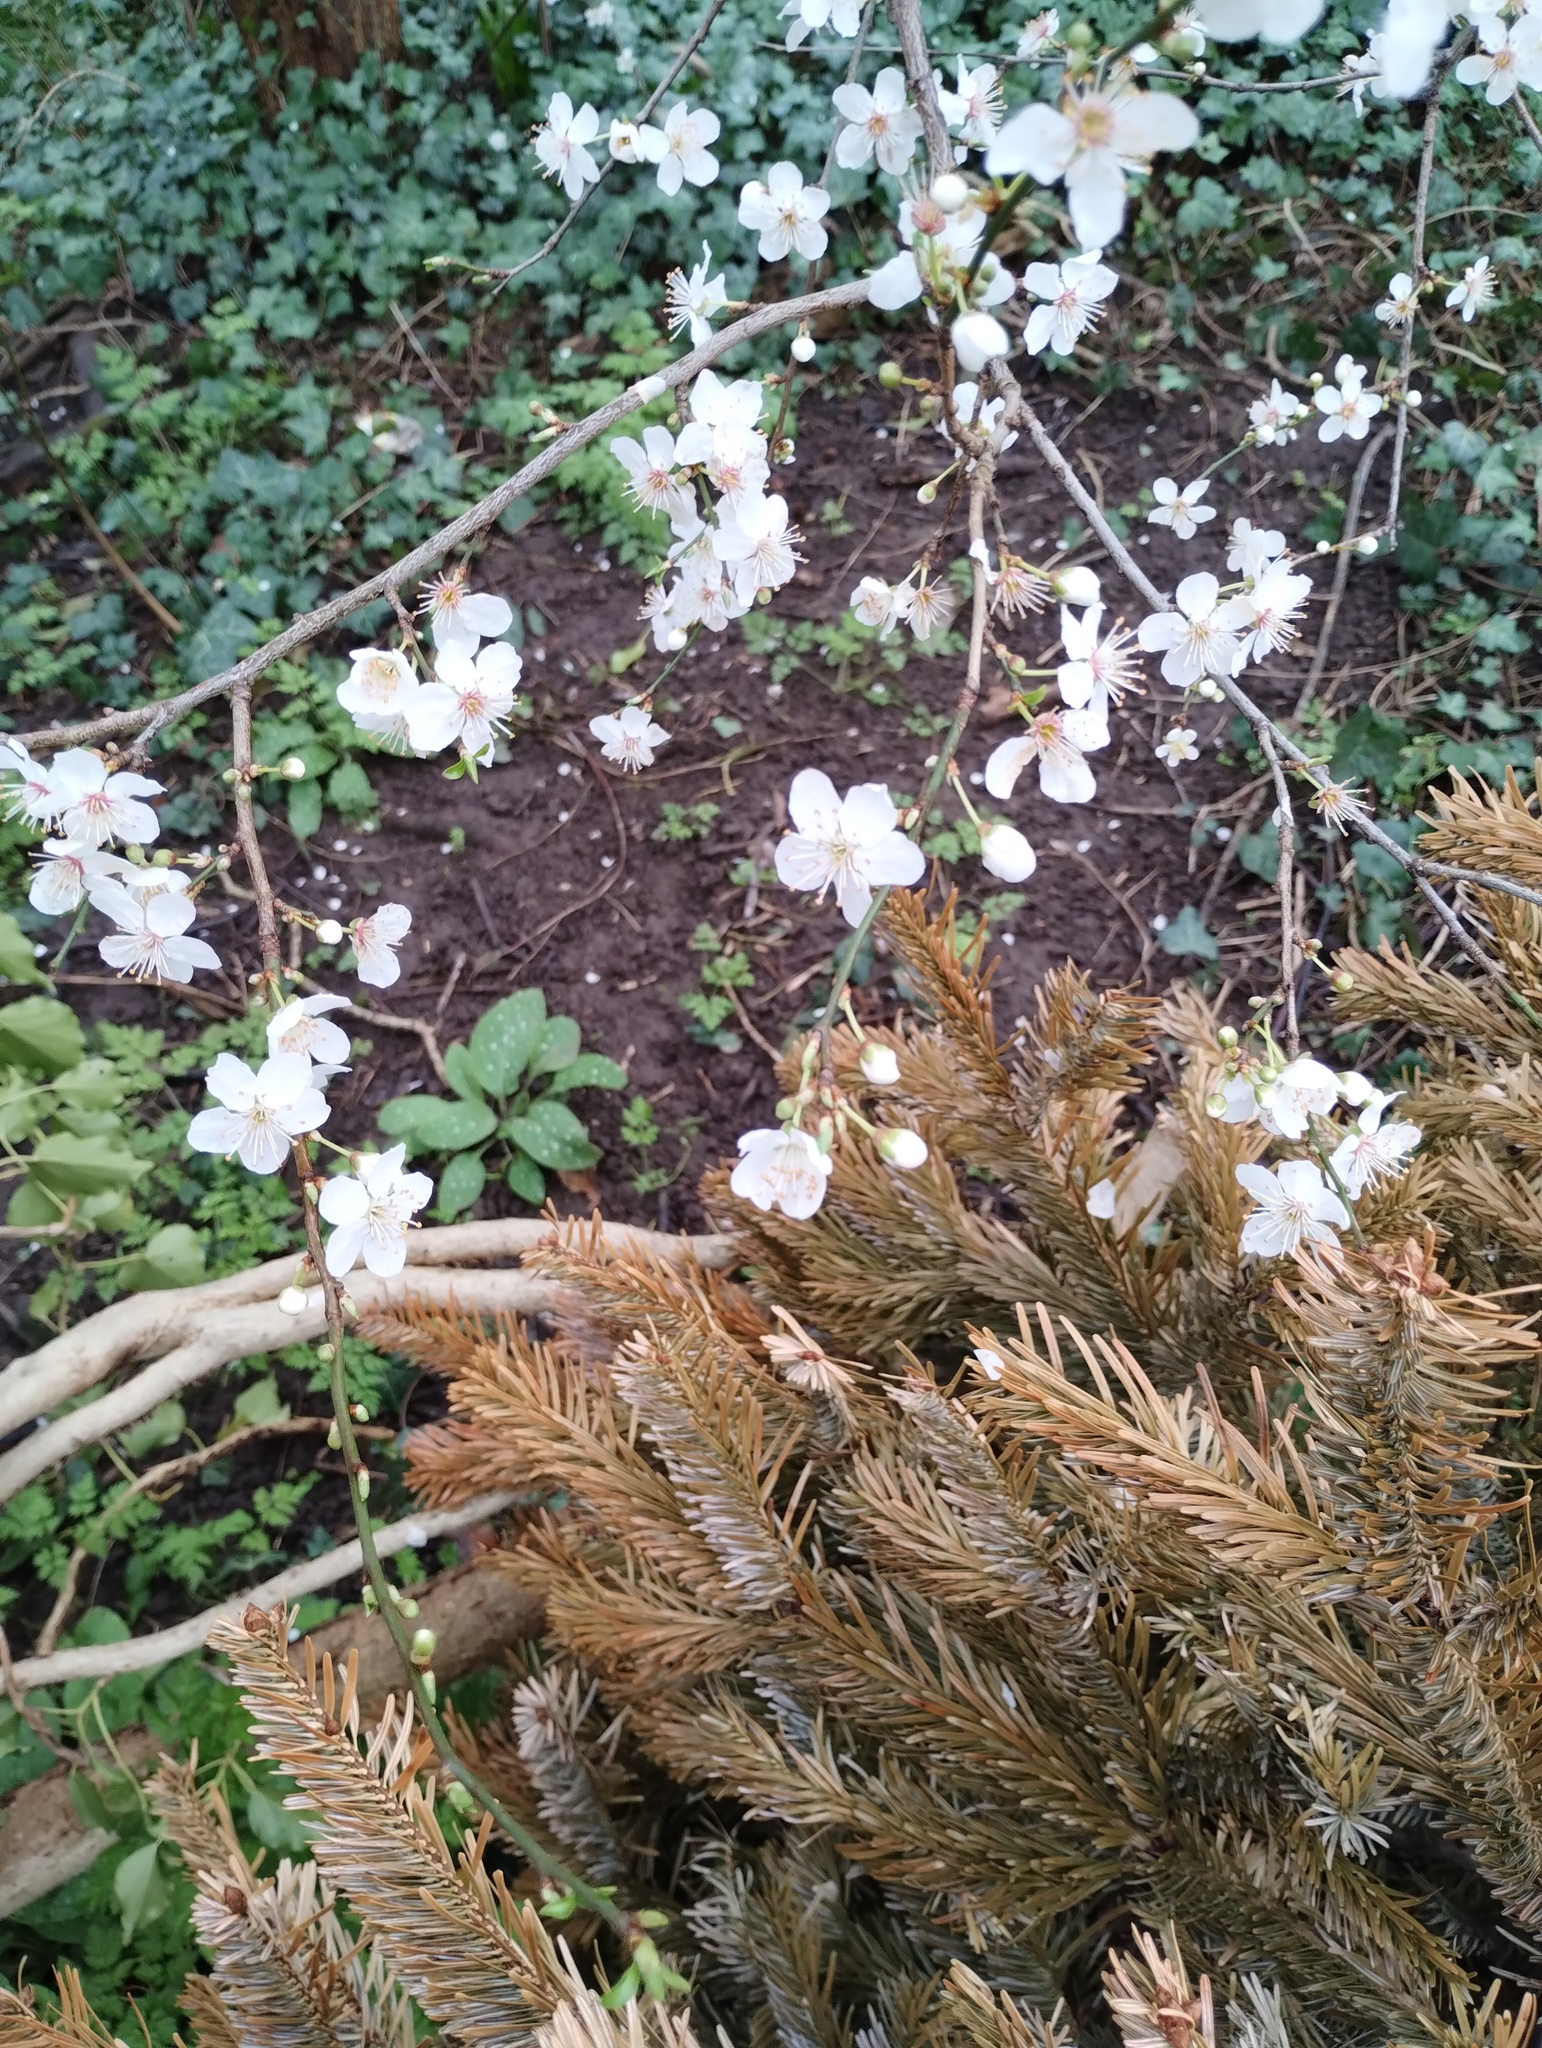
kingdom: Plantae
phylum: Tracheophyta
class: Magnoliopsida
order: Rosales
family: Rosaceae
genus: Prunus
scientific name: Prunus cerasifera
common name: Cherry plum
